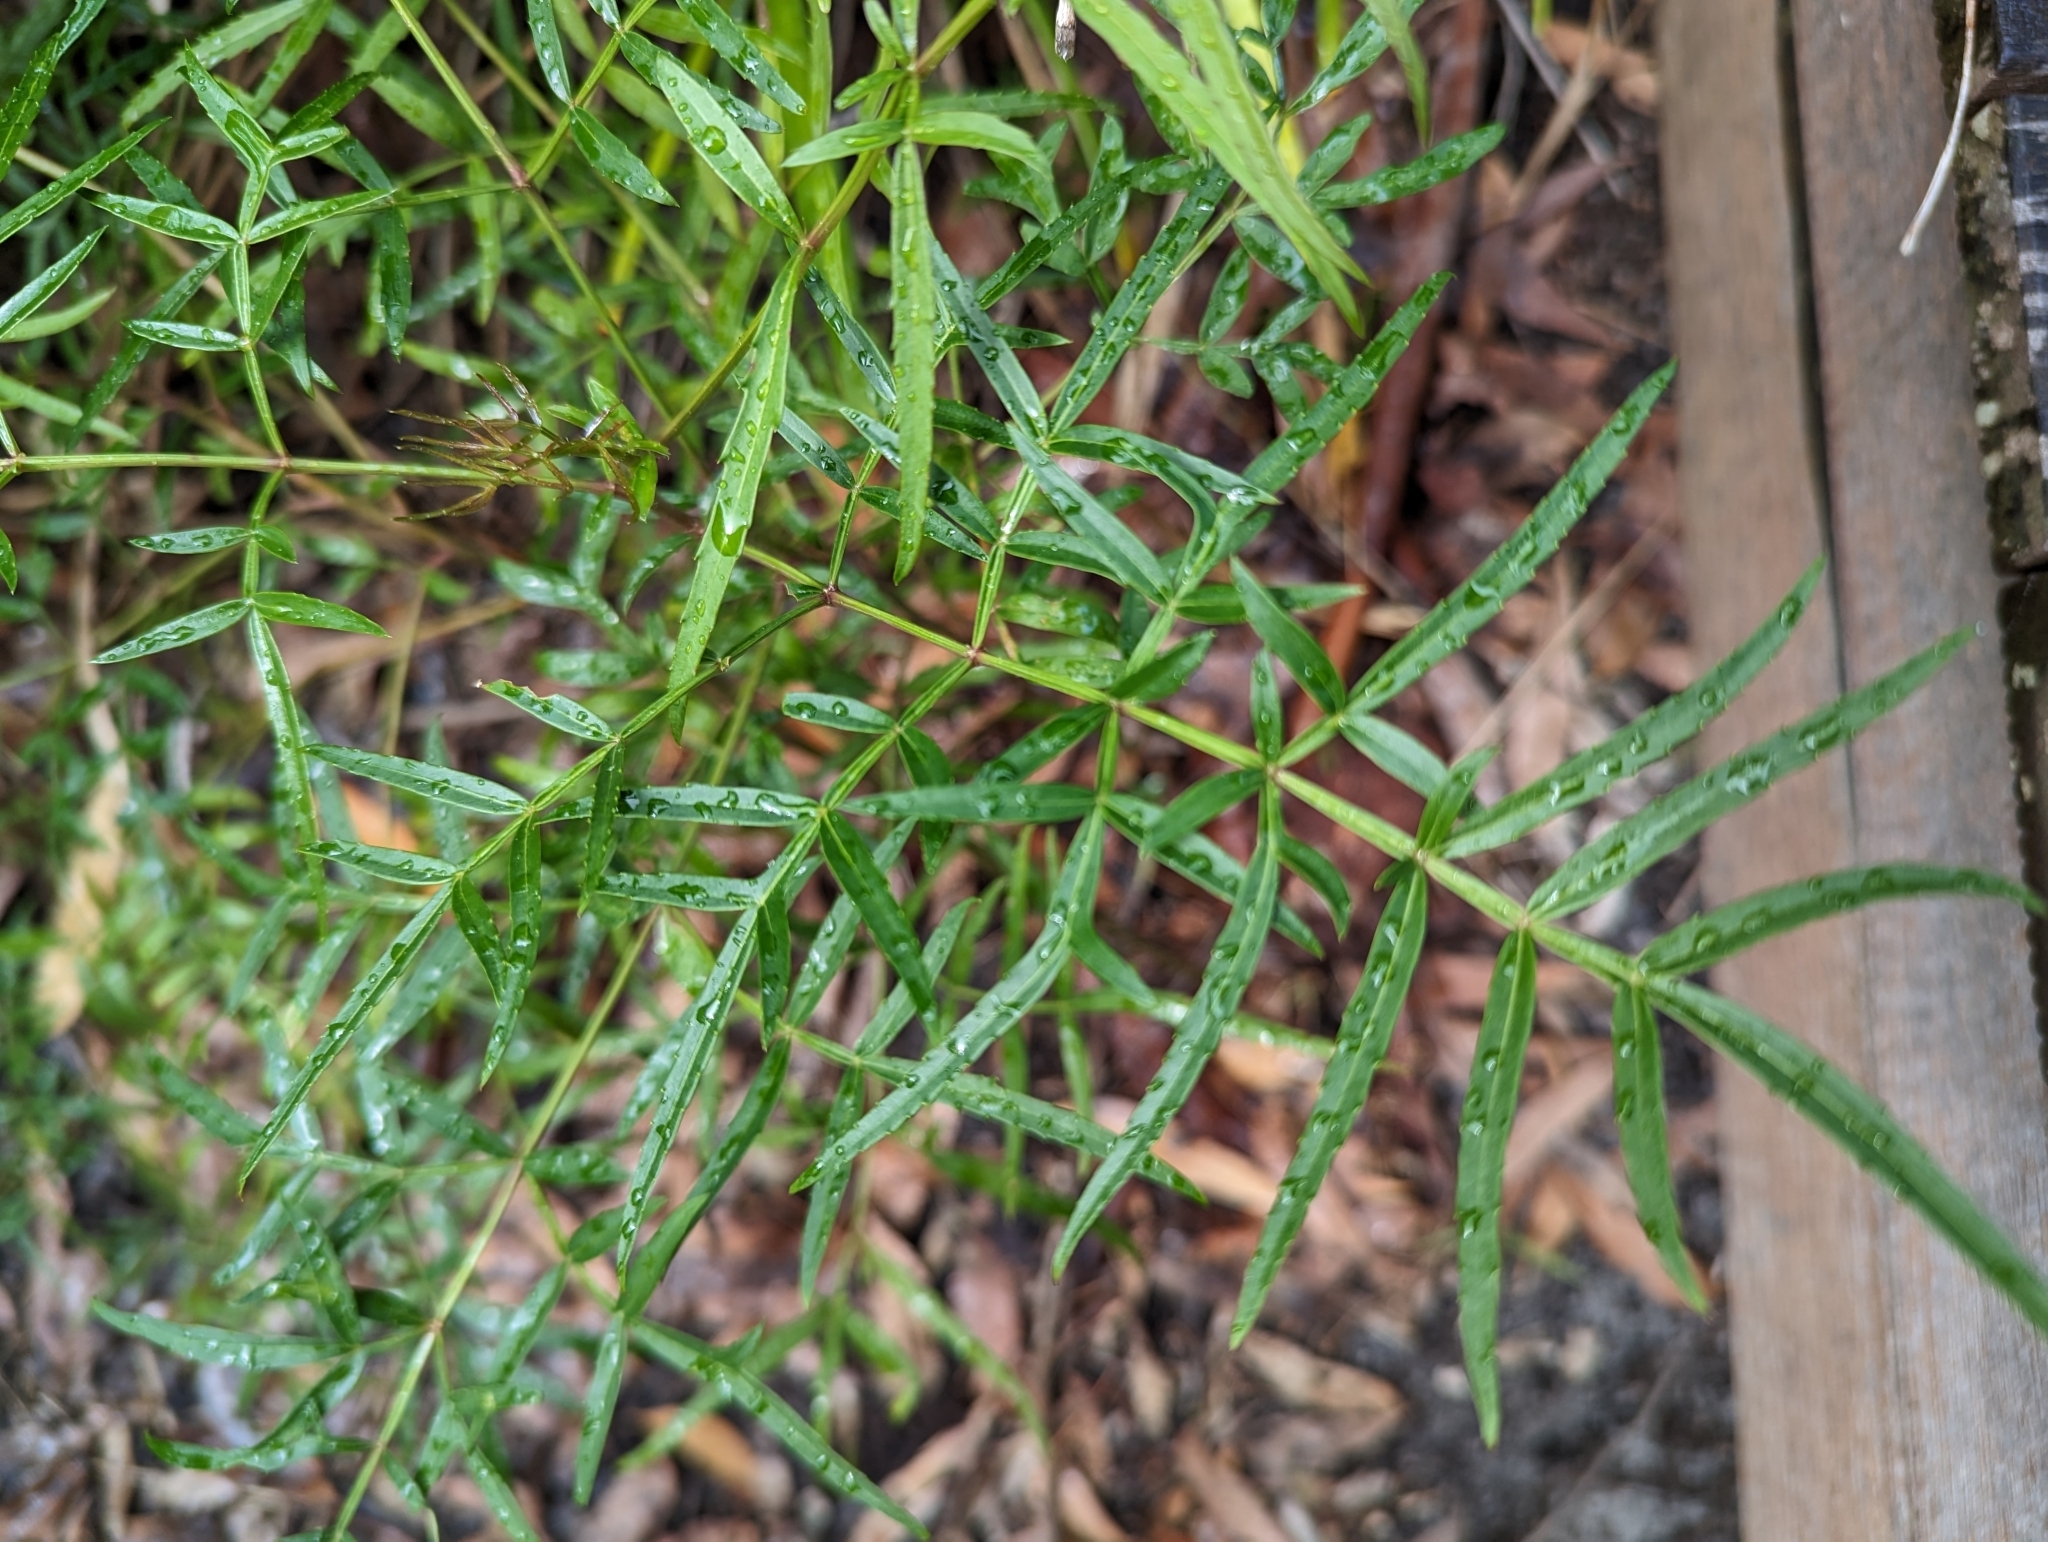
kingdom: Plantae
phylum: Tracheophyta
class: Magnoliopsida
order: Apiales
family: Araliaceae
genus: Polyscias
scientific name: Polyscias sambucifolia
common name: Elderberry-ash
